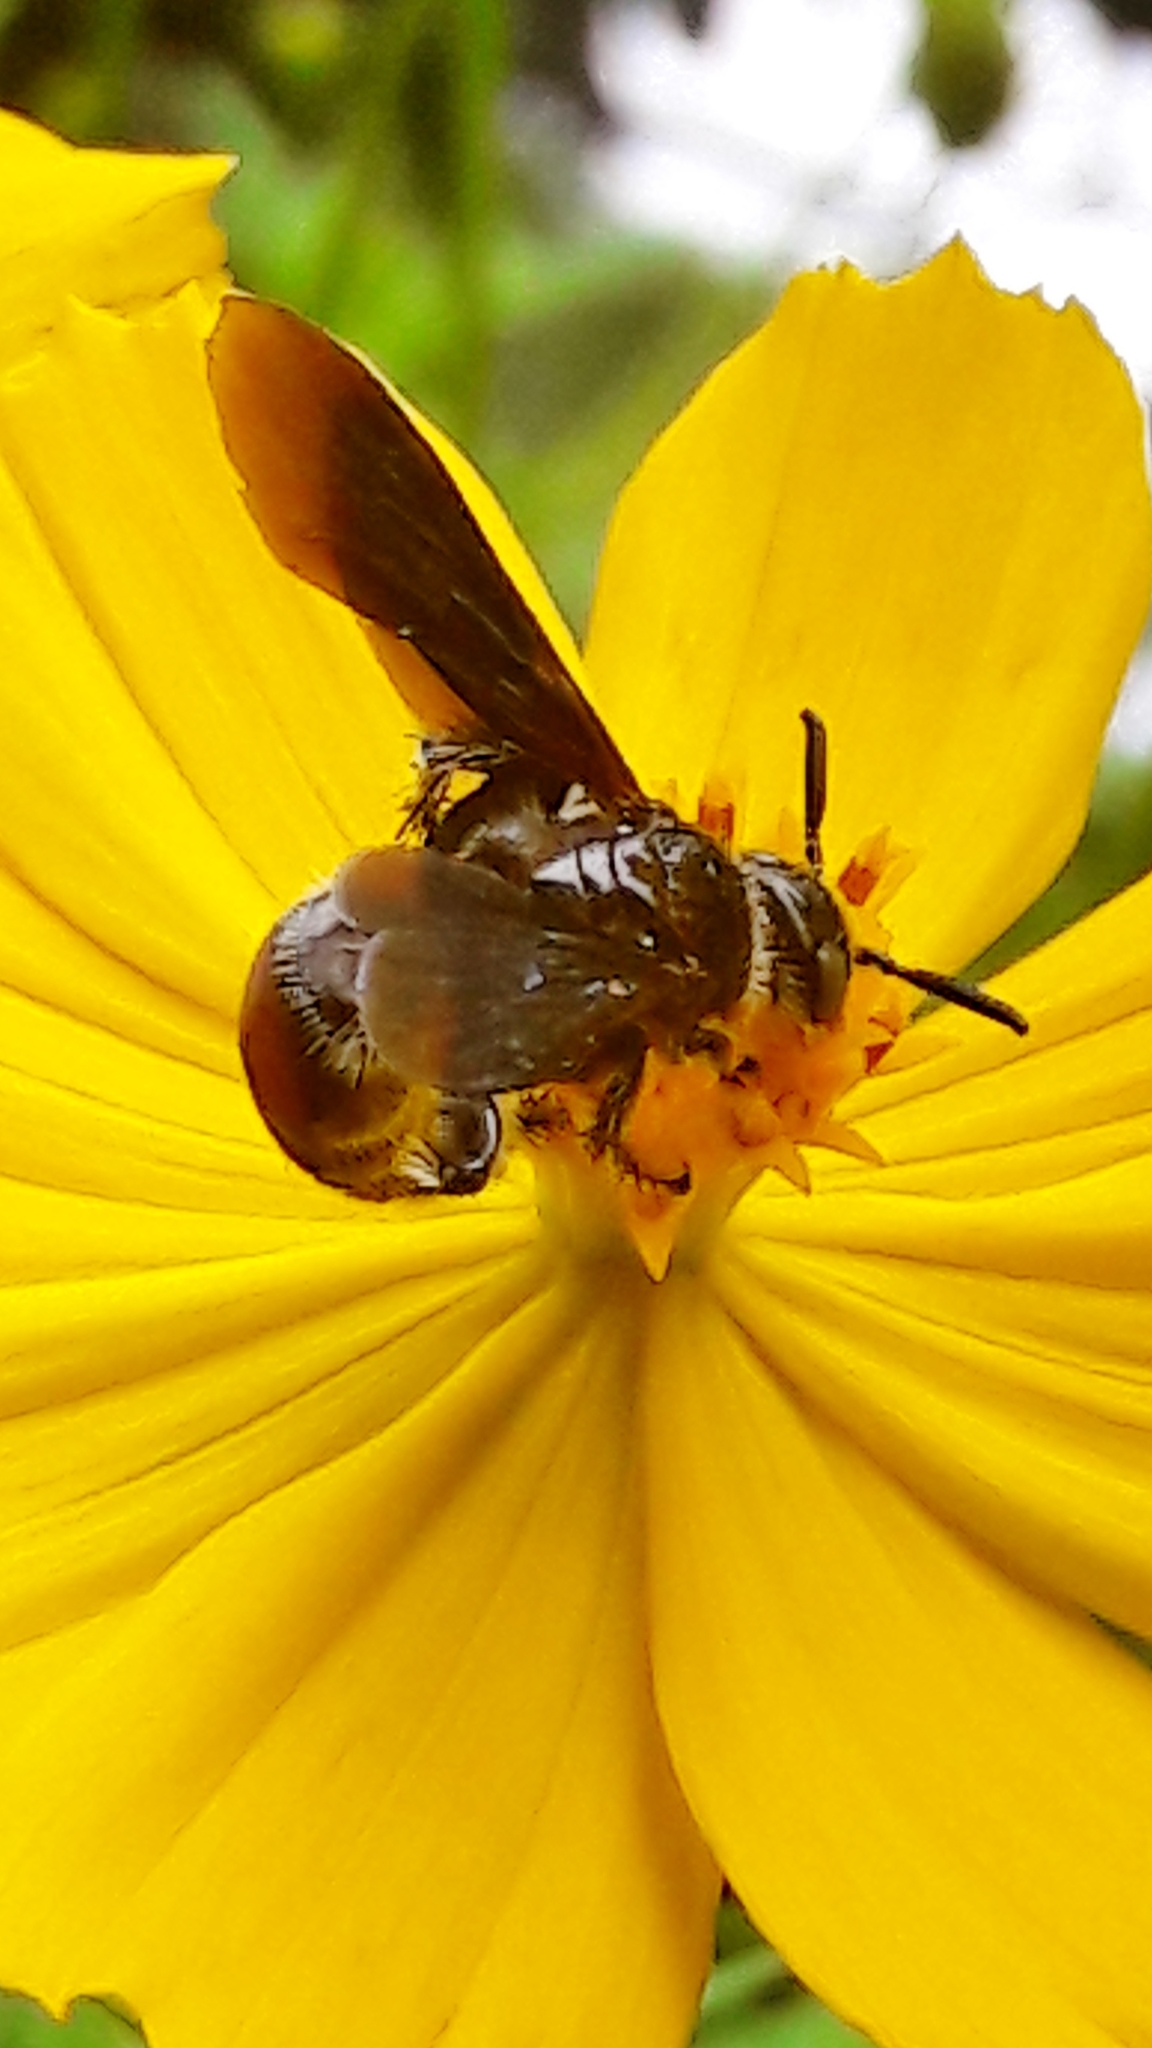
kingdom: Animalia
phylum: Arthropoda
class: Insecta
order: Hymenoptera
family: Scoliidae
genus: Dielis
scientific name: Dielis dorsata
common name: Scoliid wasp
